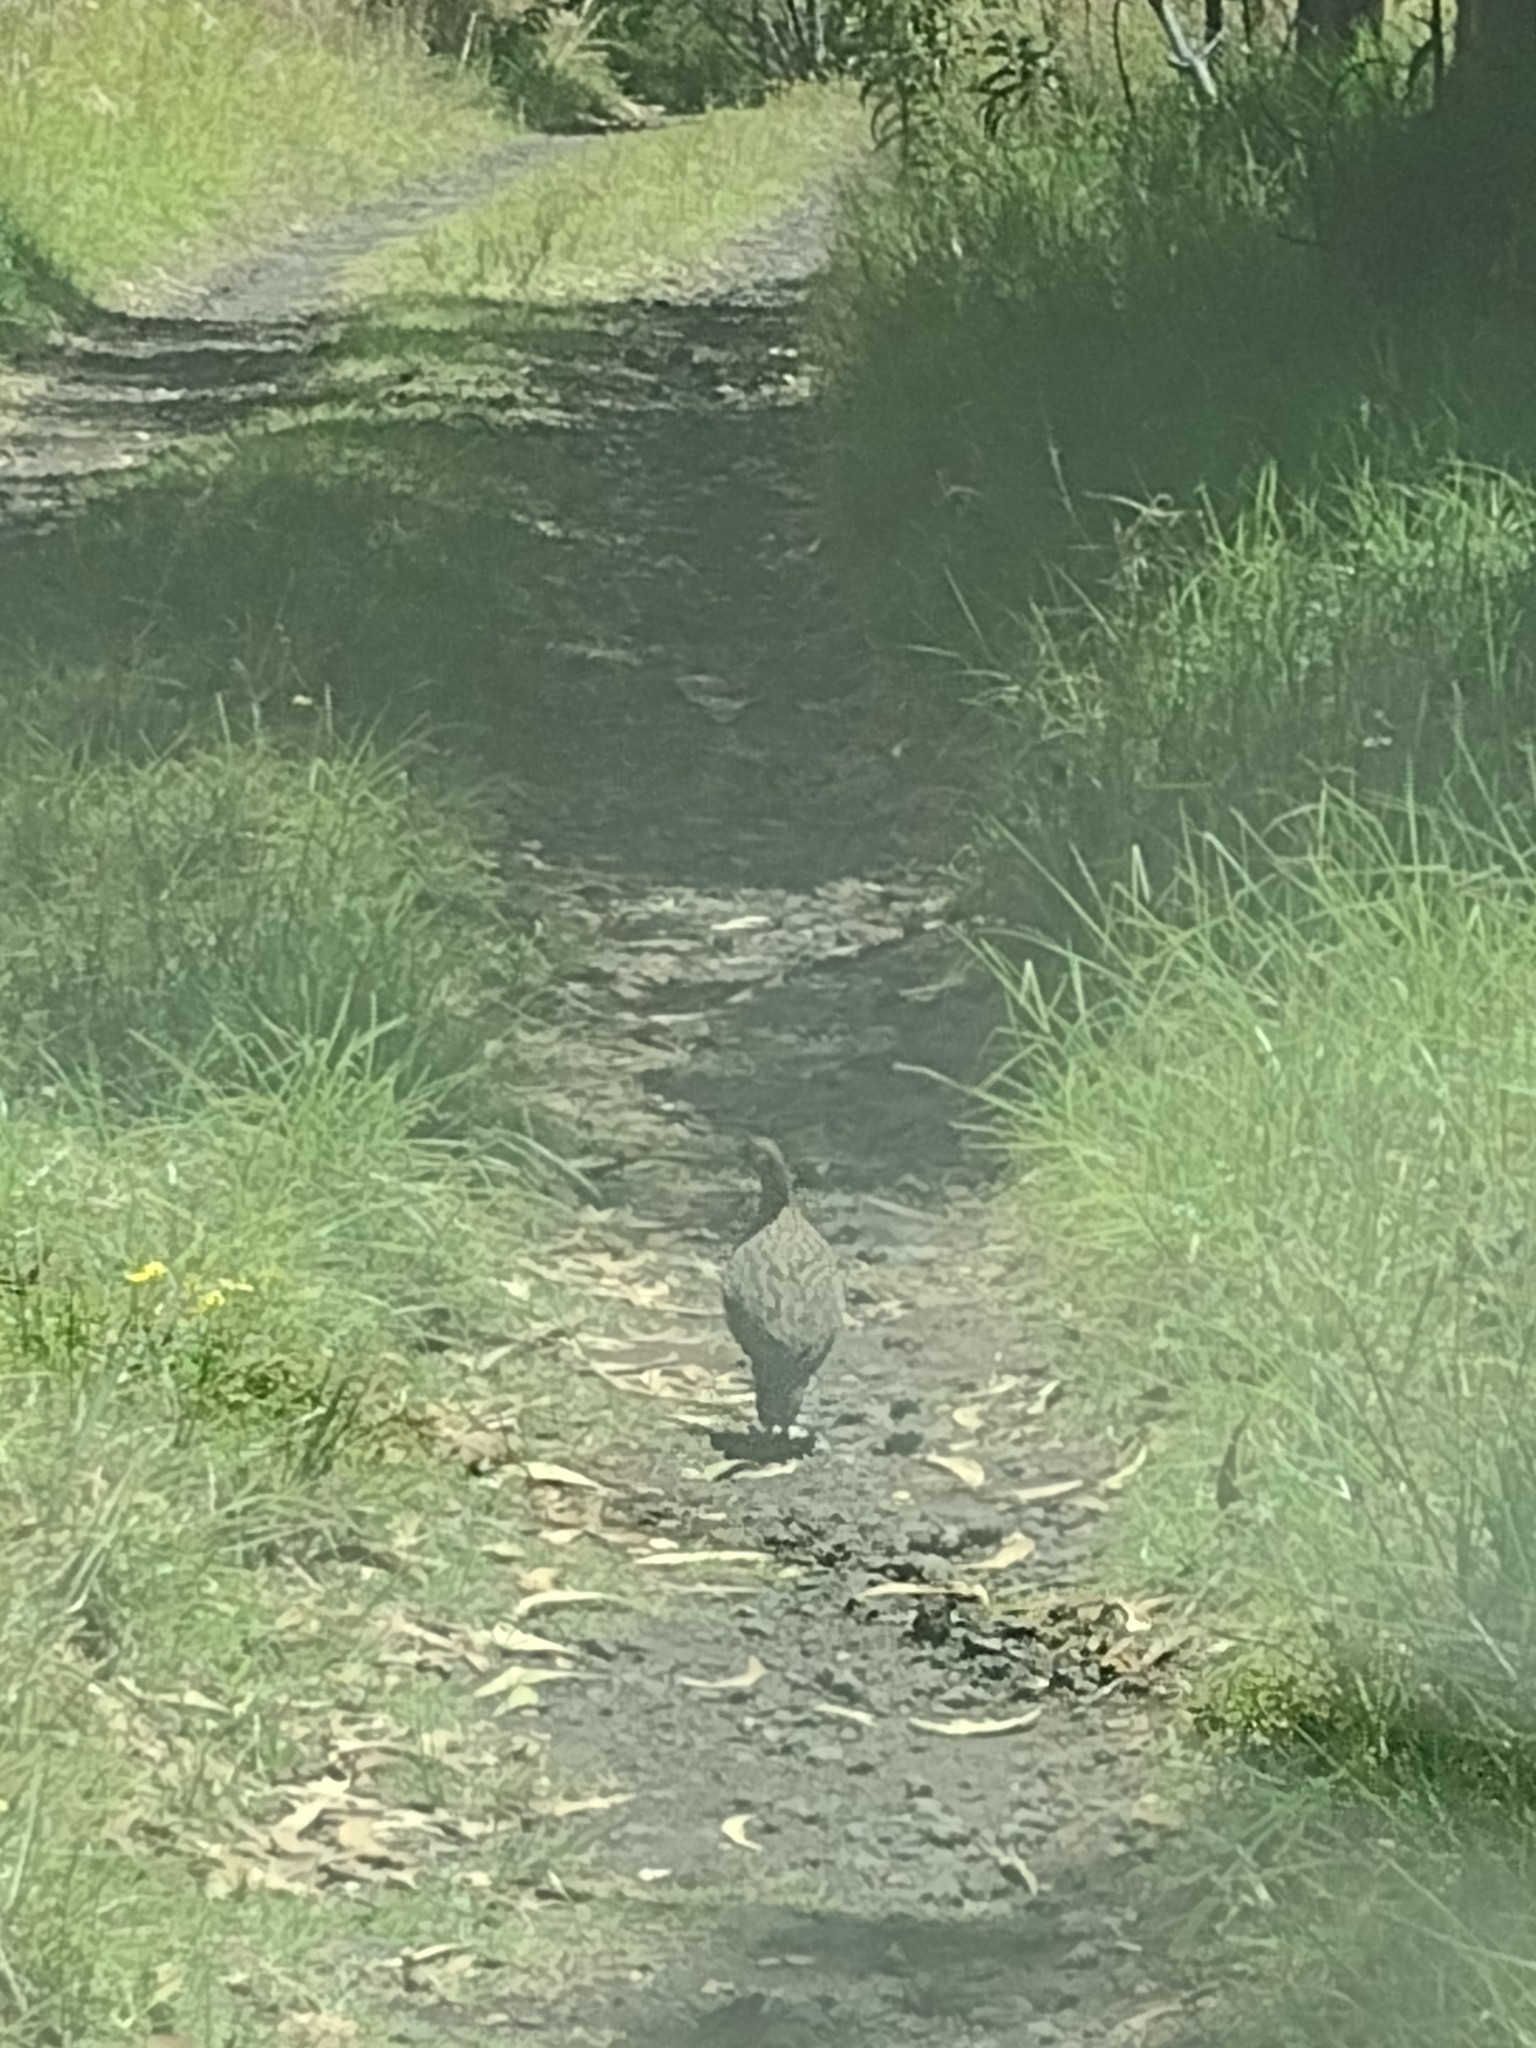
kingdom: Animalia
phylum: Chordata
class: Aves
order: Galliformes
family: Phasianidae
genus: Pternistis
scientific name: Pternistis erckelii
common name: Erckel's francolin
